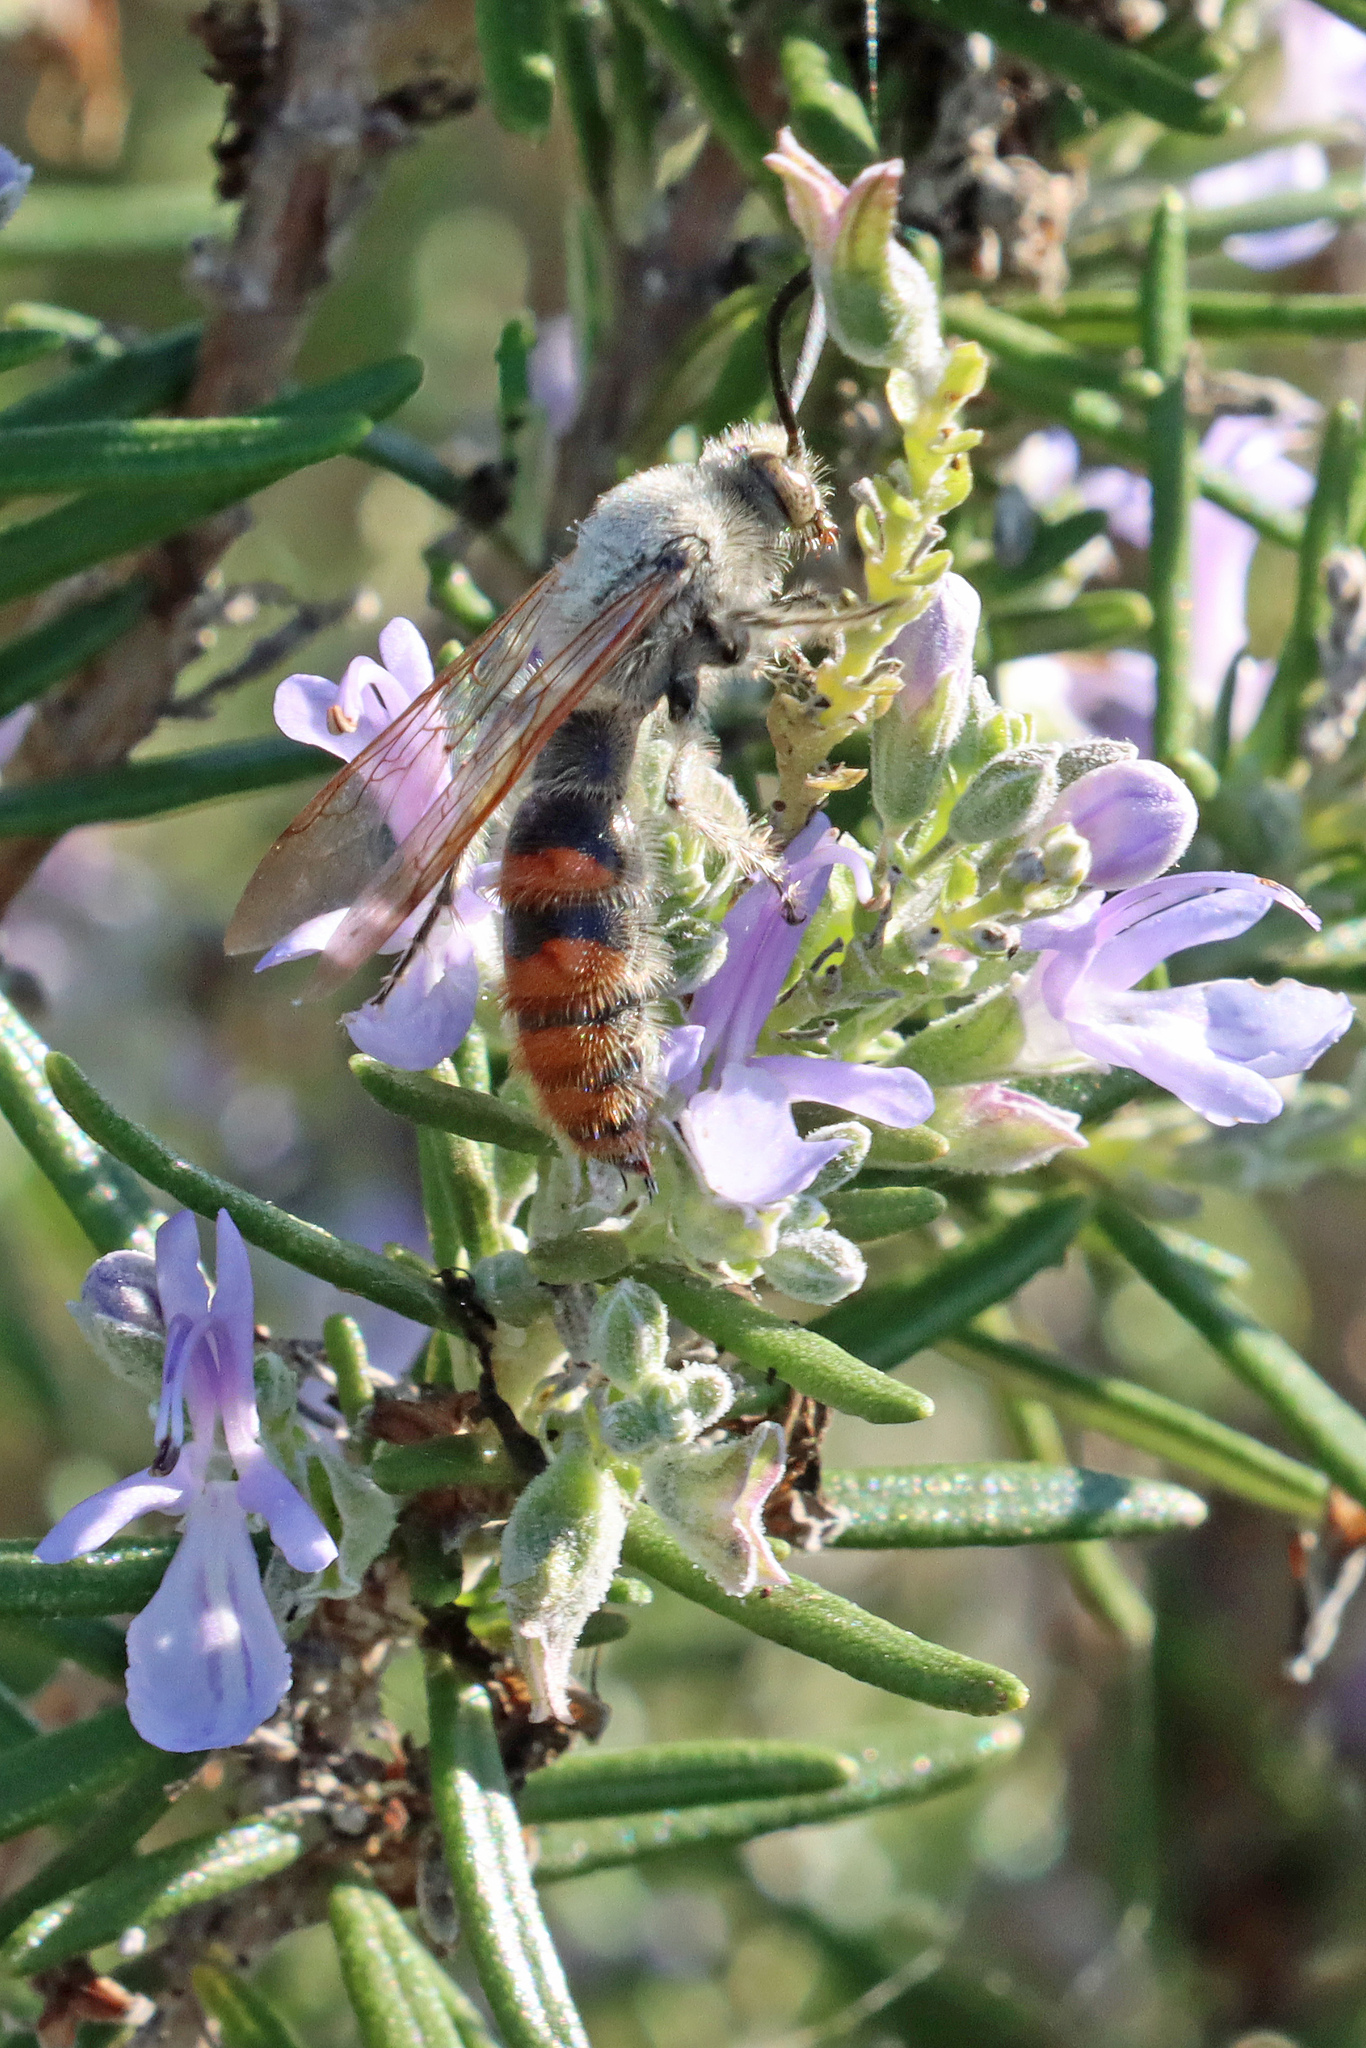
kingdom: Animalia
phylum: Arthropoda
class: Insecta
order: Hymenoptera
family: Scoliidae
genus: Campsomeriella
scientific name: Campsomeriella thoracica
